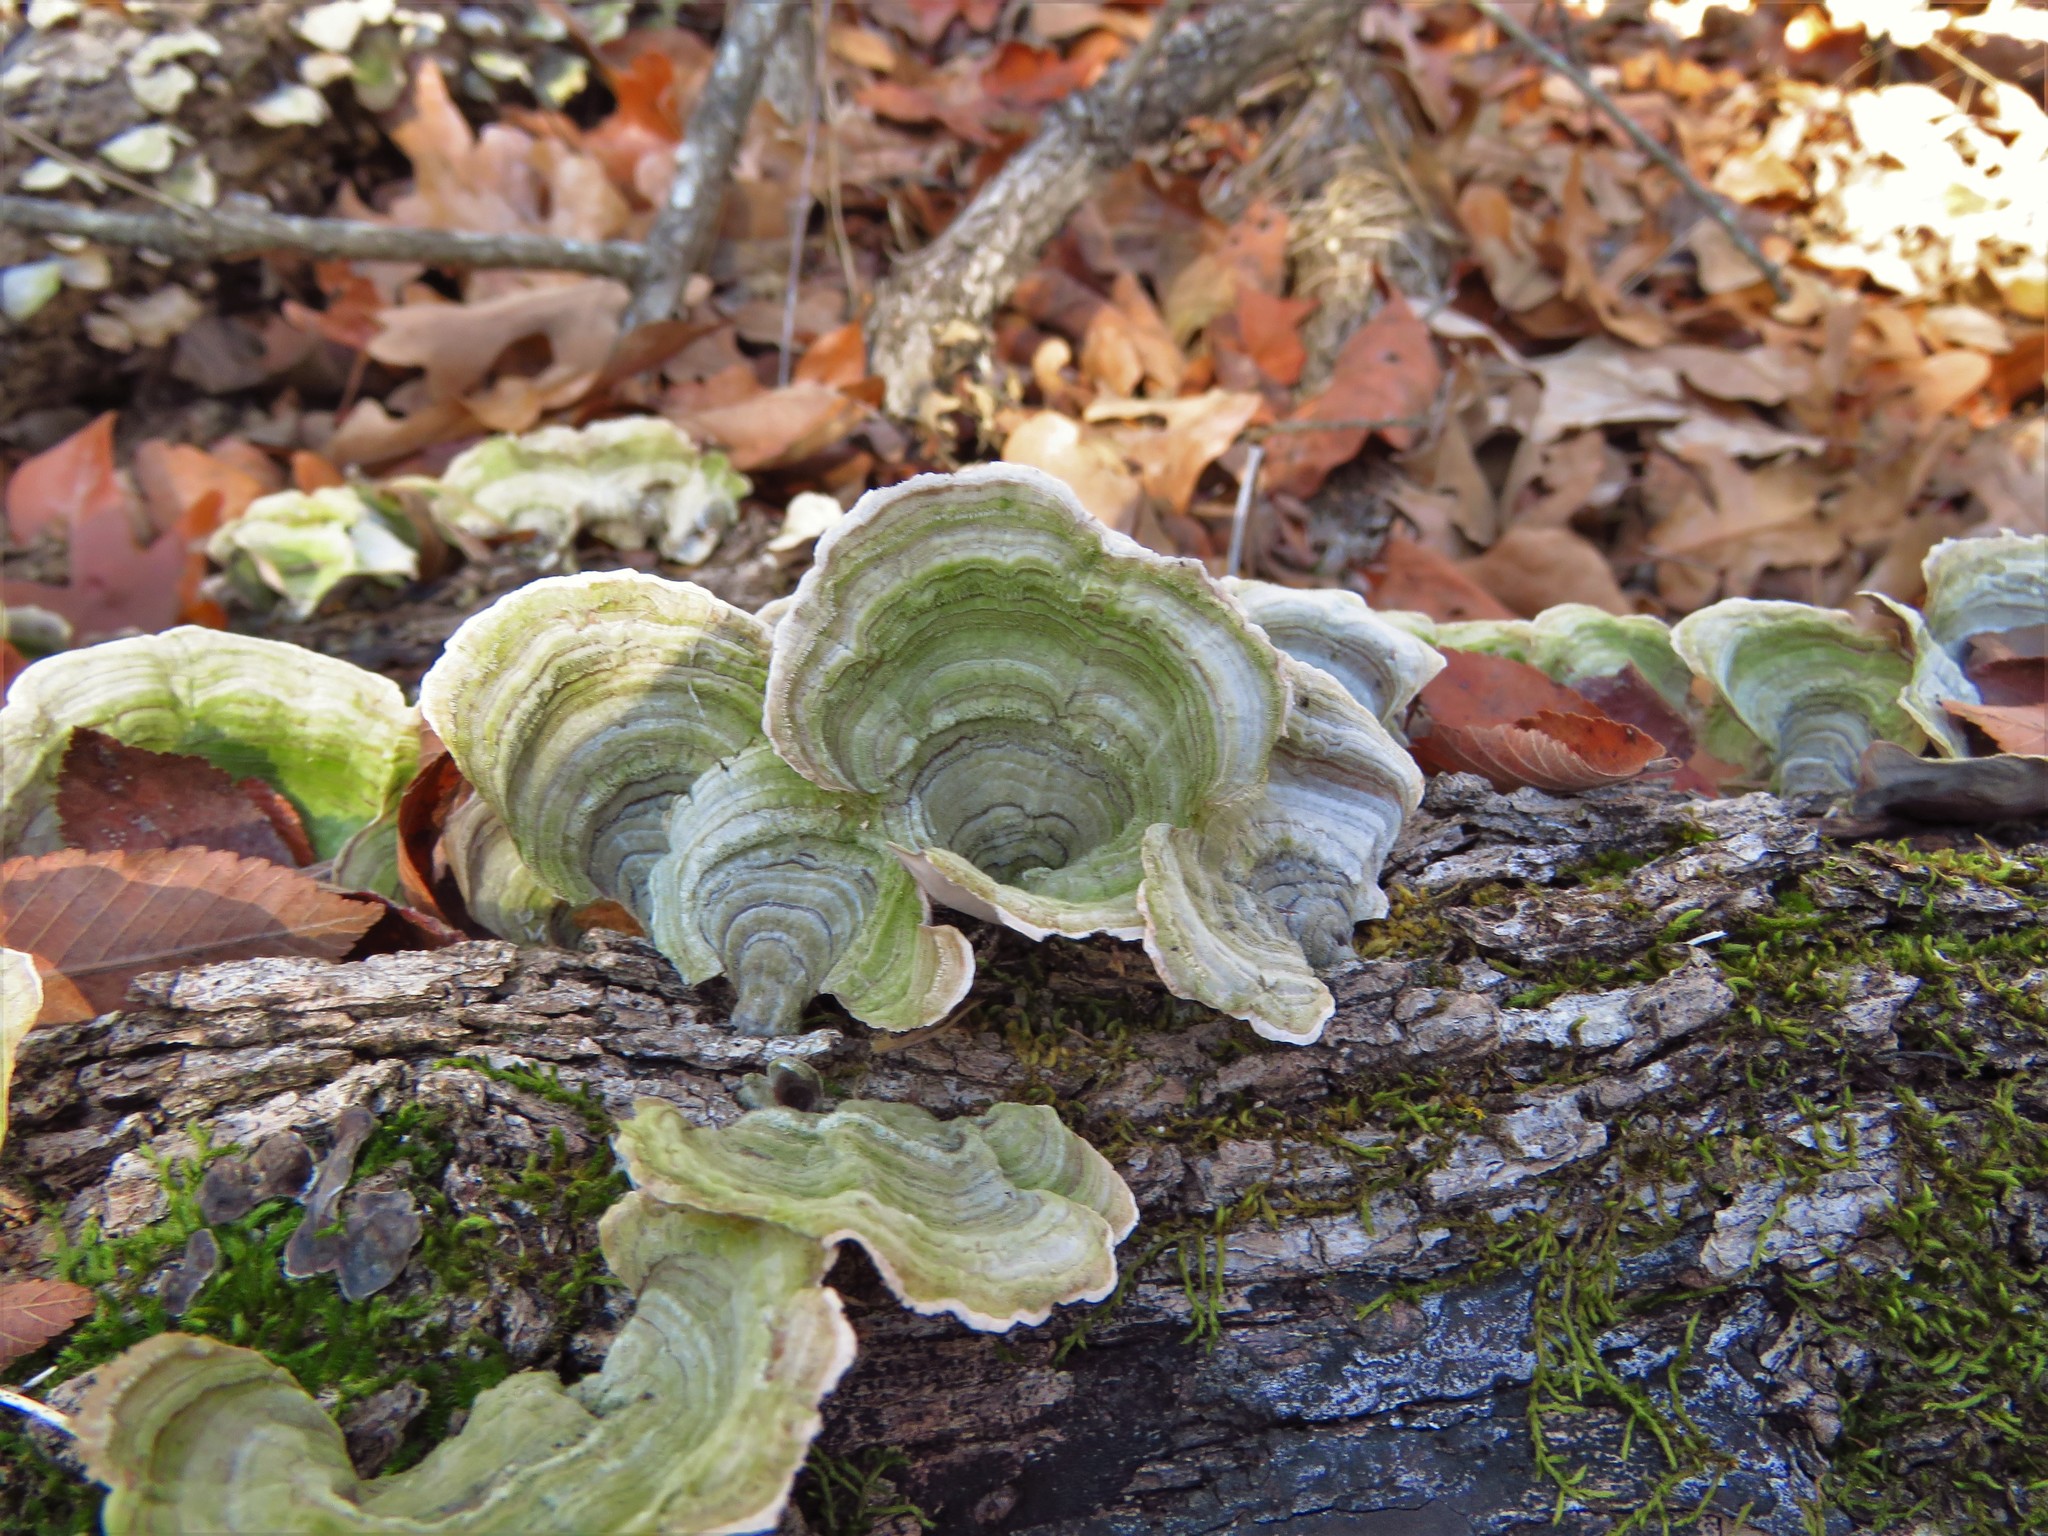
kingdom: Fungi
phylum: Basidiomycota
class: Agaricomycetes
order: Russulales
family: Stereaceae
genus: Stereum
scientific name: Stereum ostrea
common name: False turkeytail
